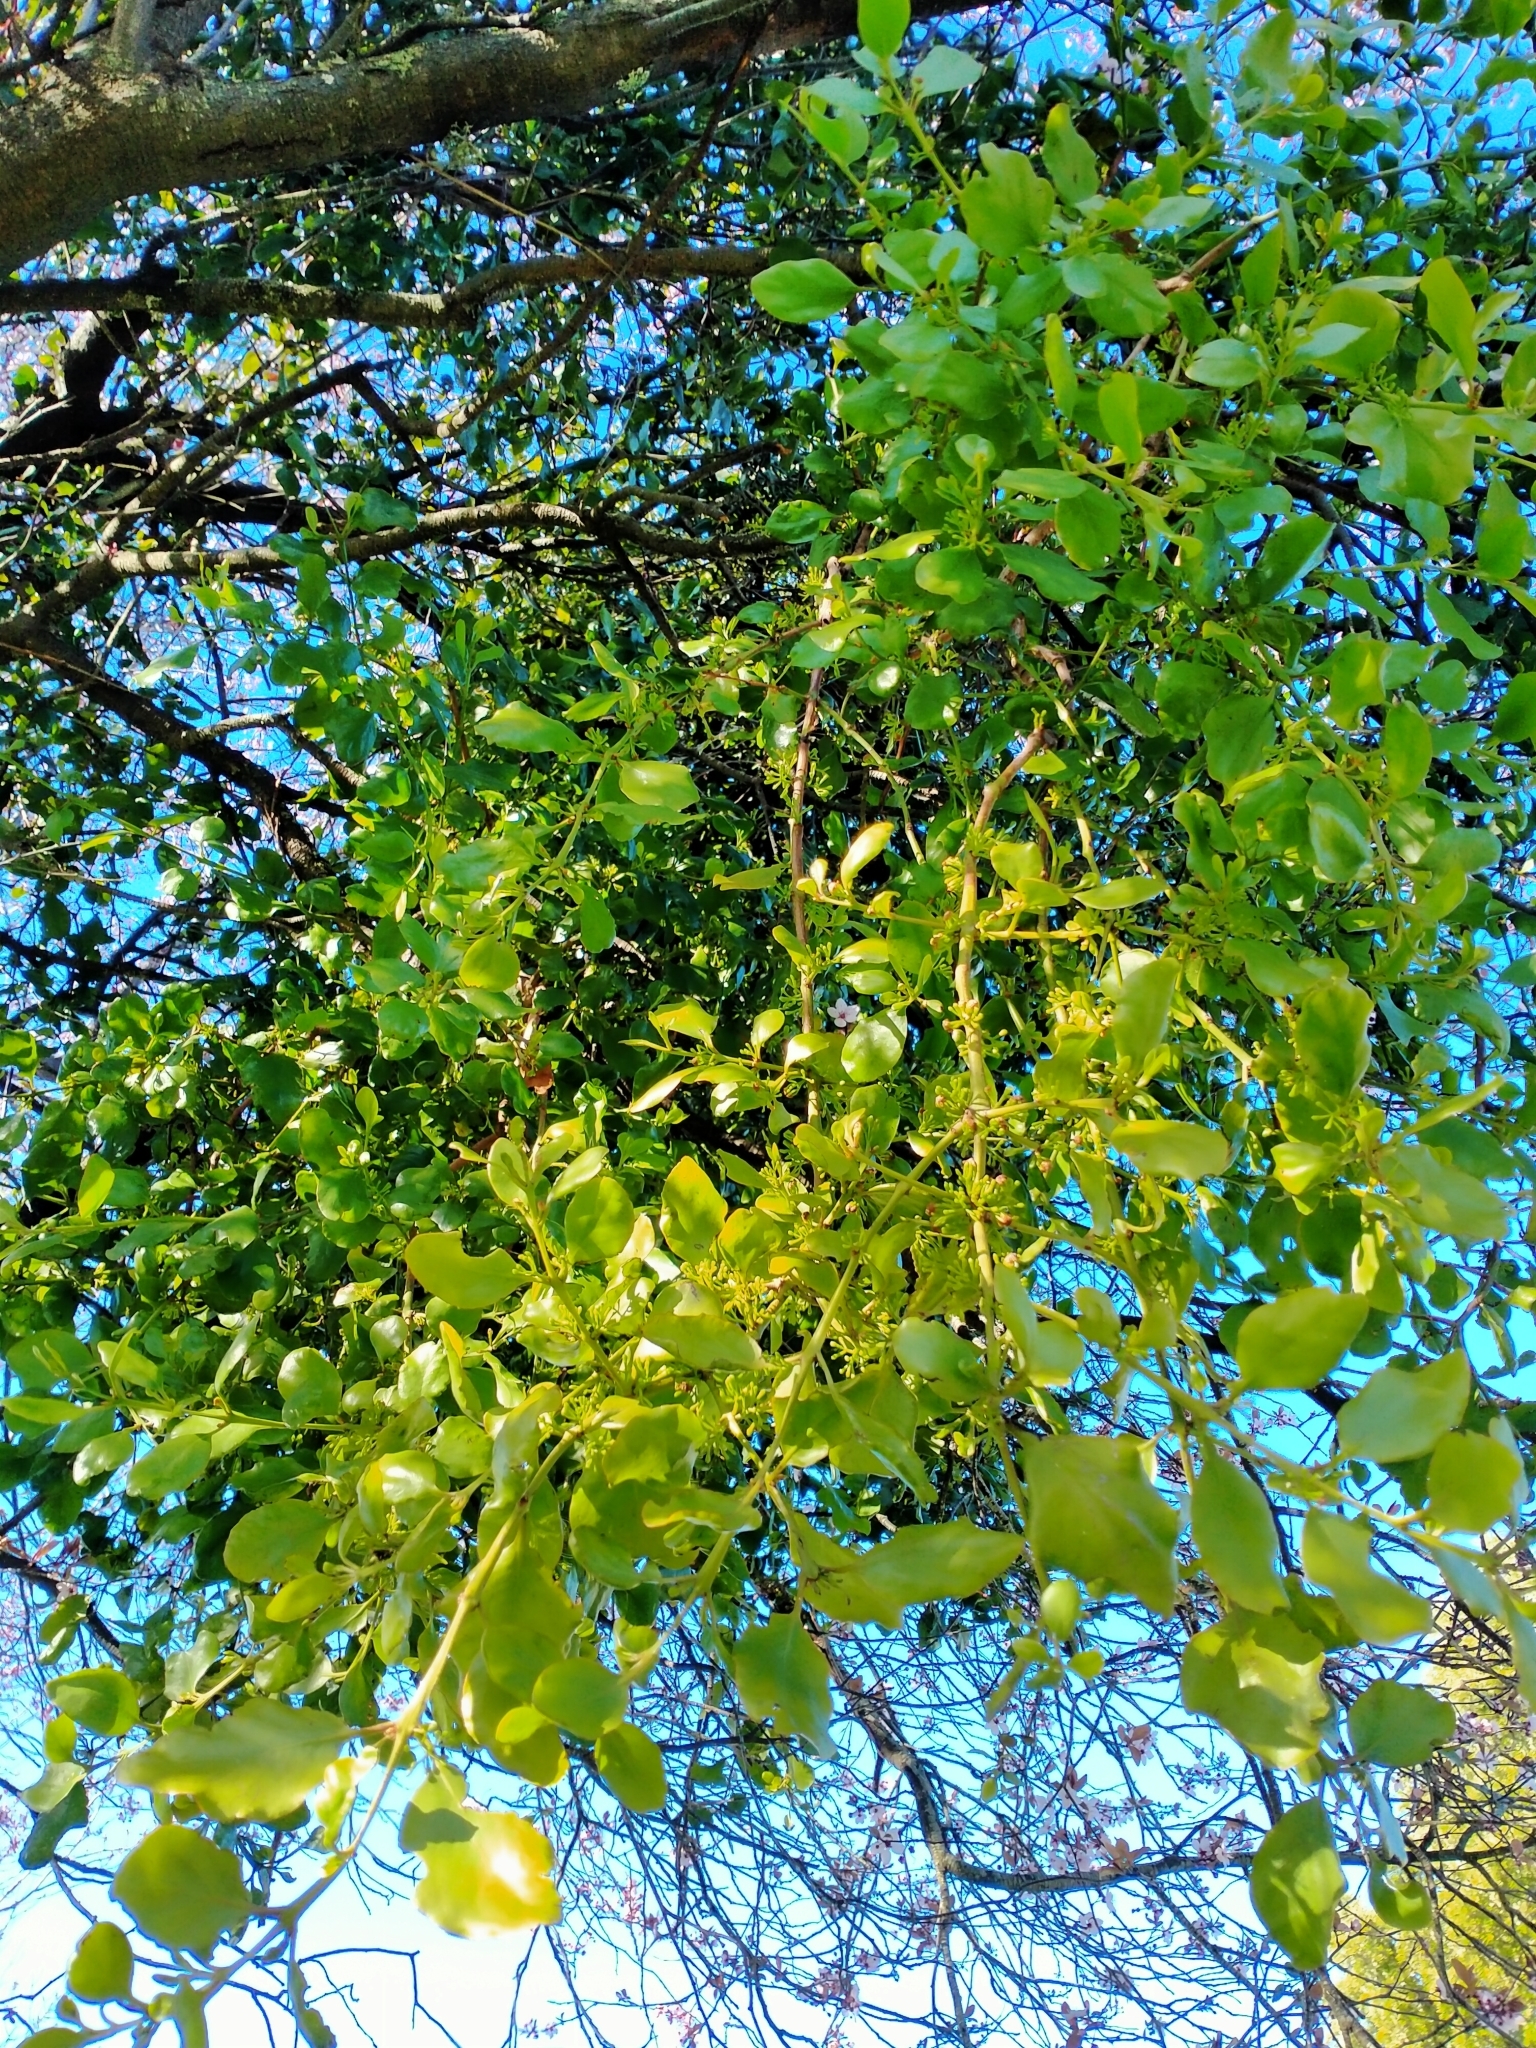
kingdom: Plantae
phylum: Tracheophyta
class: Magnoliopsida
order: Santalales
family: Loranthaceae
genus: Ileostylus
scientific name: Ileostylus micranthus
